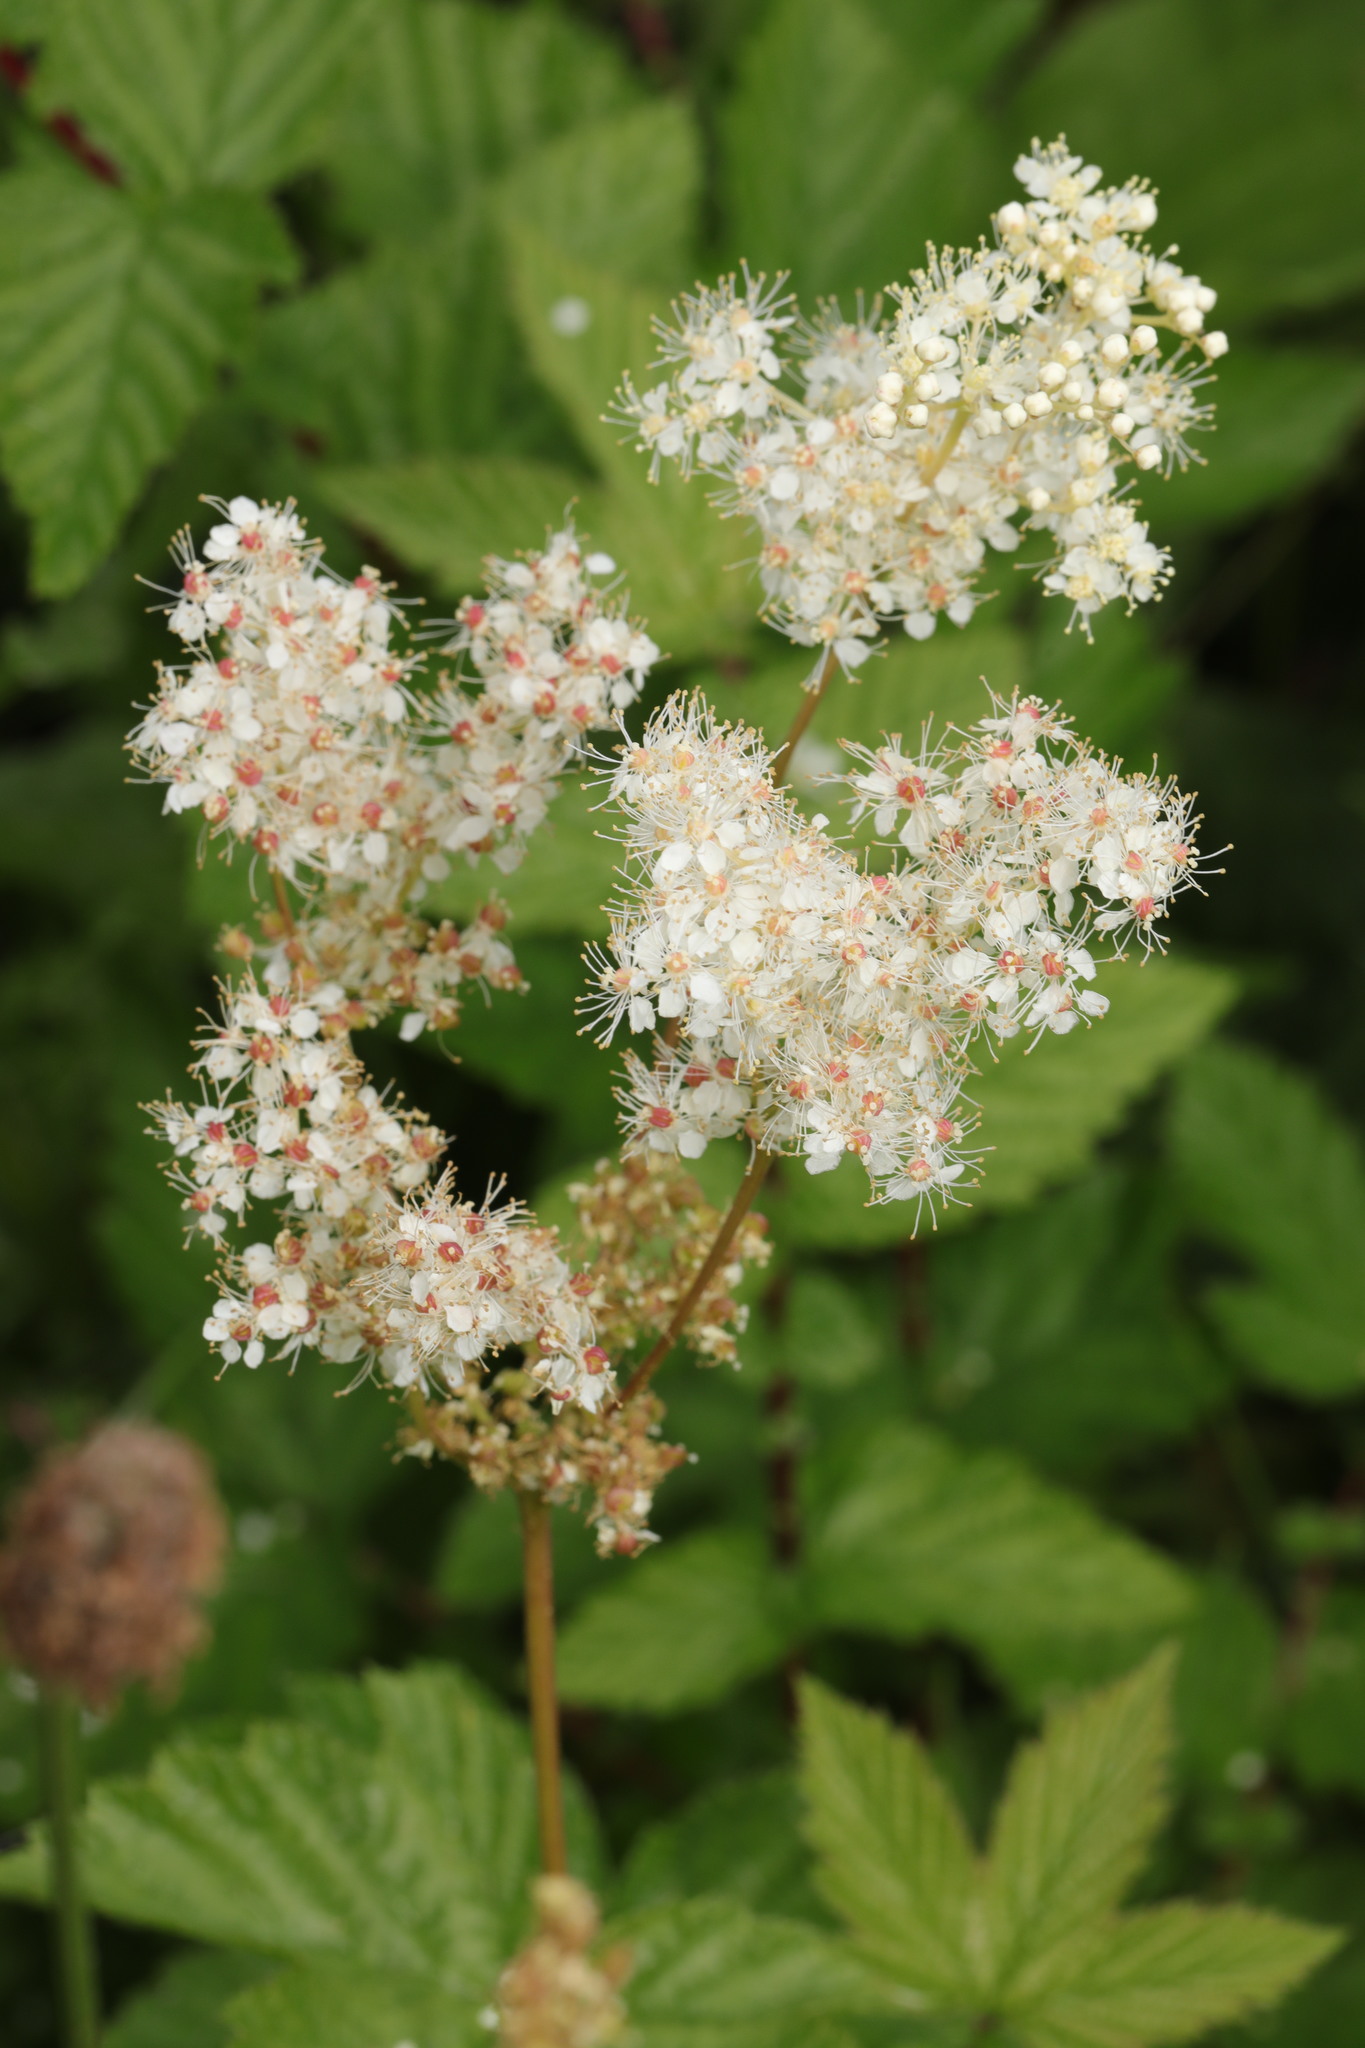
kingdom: Plantae
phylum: Tracheophyta
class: Magnoliopsida
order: Rosales
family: Rosaceae
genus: Filipendula
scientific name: Filipendula ulmaria
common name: Meadowsweet
